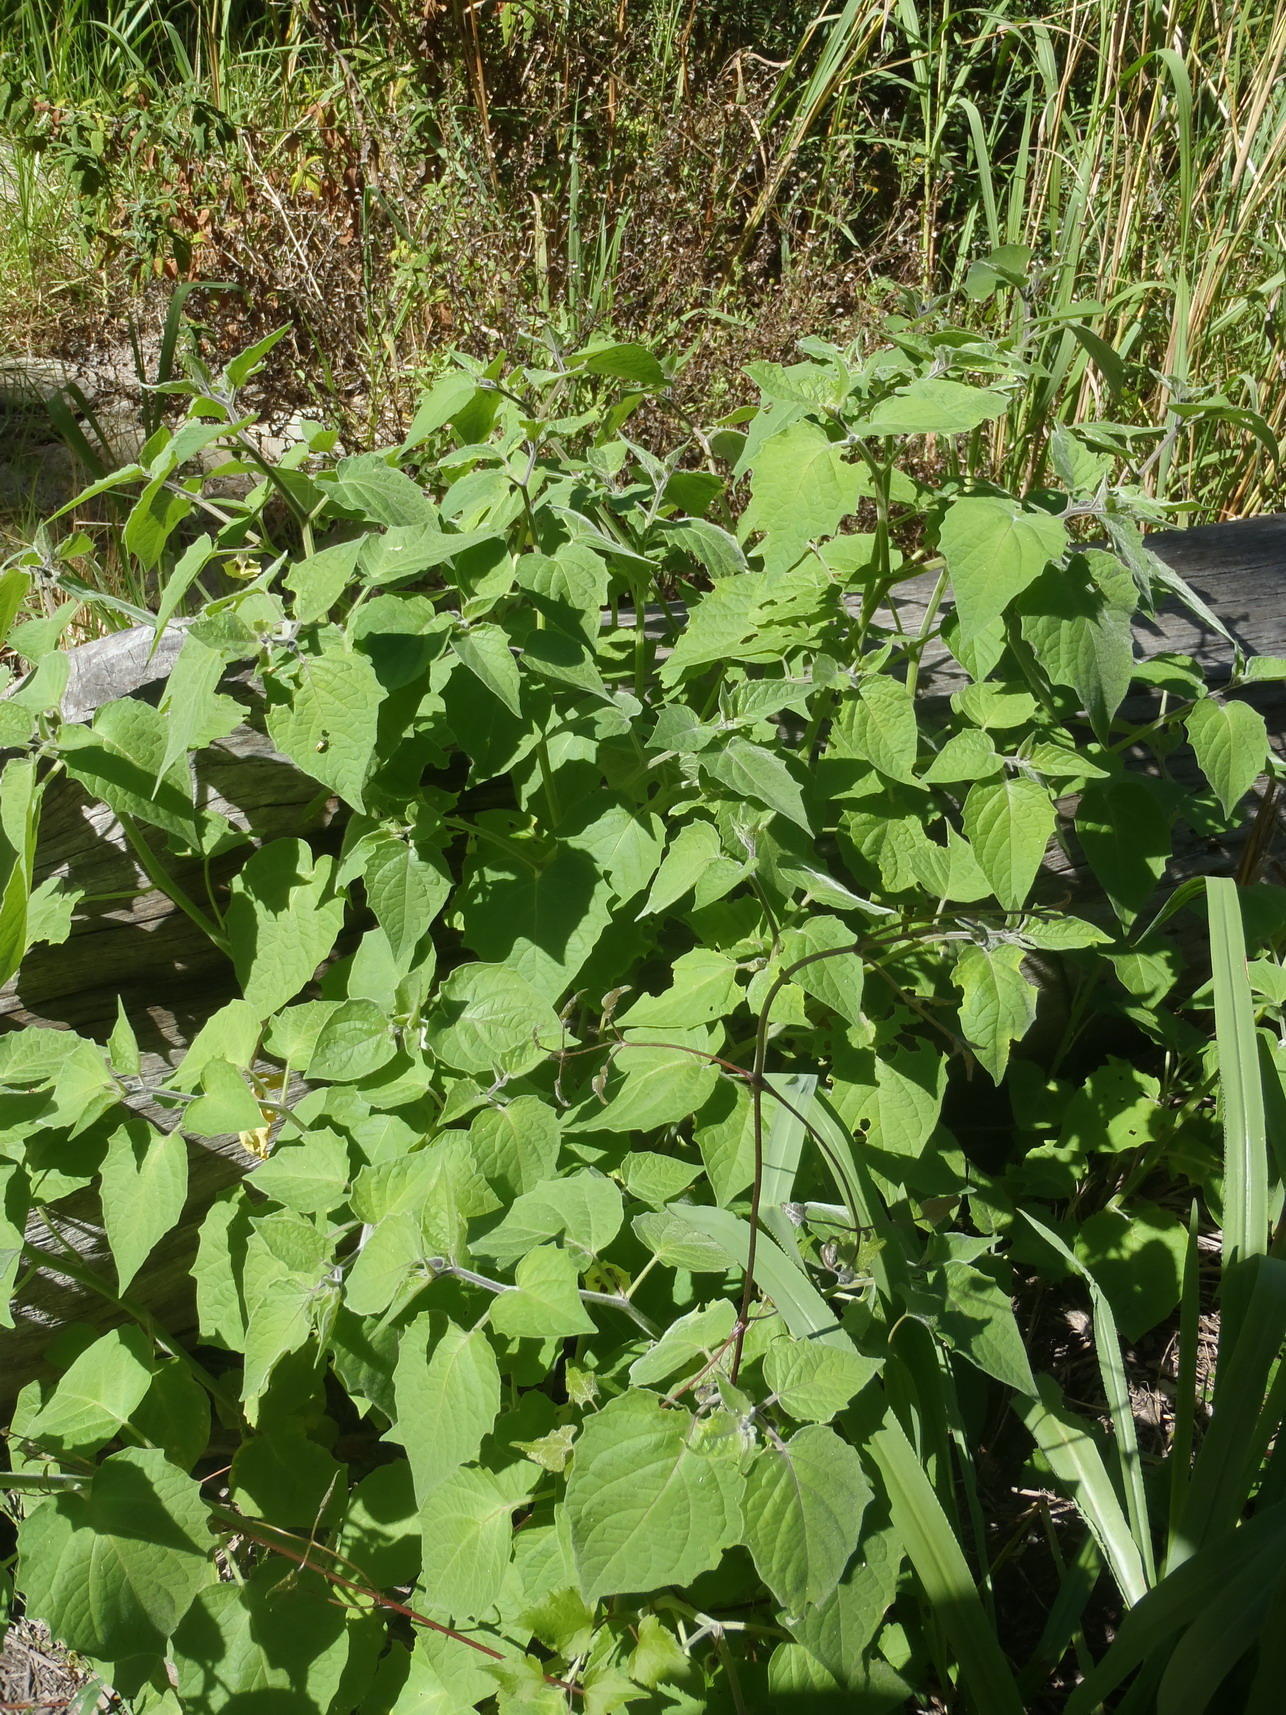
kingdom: Plantae
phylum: Tracheophyta
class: Magnoliopsida
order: Solanales
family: Solanaceae
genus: Physalis
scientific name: Physalis peruviana
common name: Cape-gooseberry
